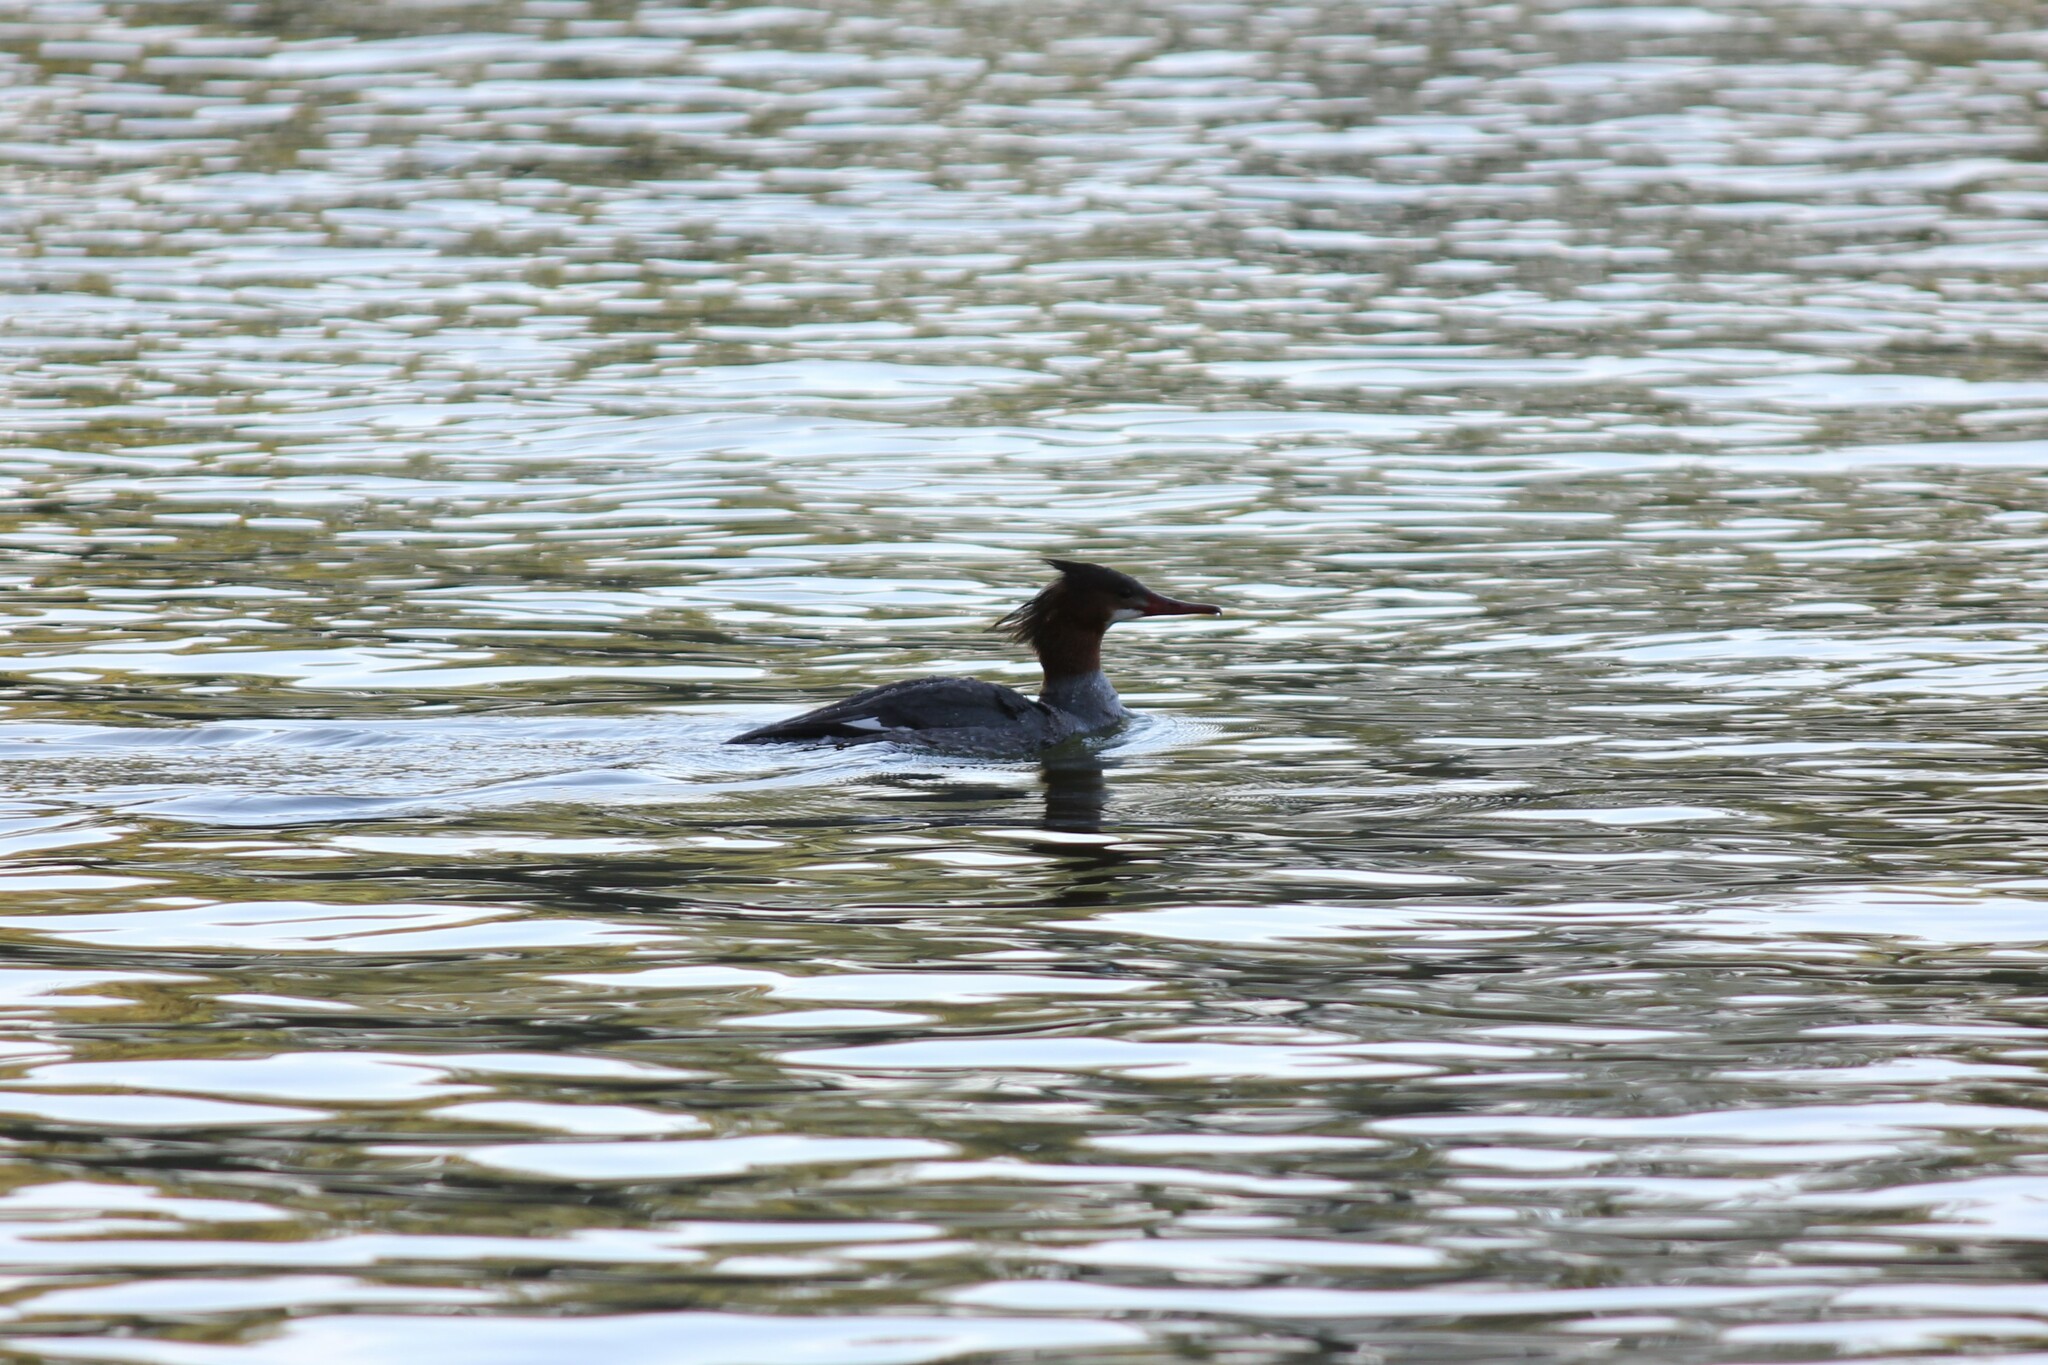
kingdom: Animalia
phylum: Chordata
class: Aves
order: Anseriformes
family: Anatidae
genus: Mergus
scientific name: Mergus merganser
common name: Common merganser
